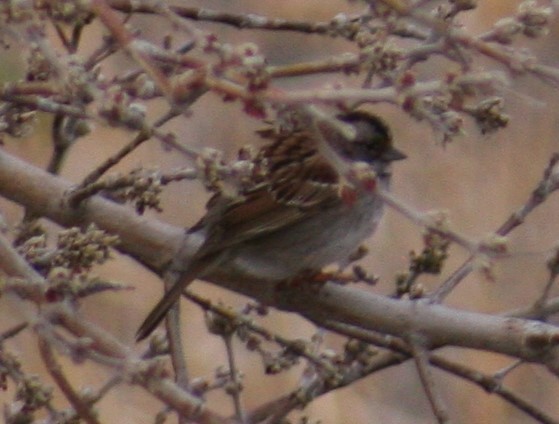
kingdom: Animalia
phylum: Chordata
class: Aves
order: Passeriformes
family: Passerellidae
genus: Zonotrichia
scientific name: Zonotrichia albicollis
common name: White-throated sparrow
